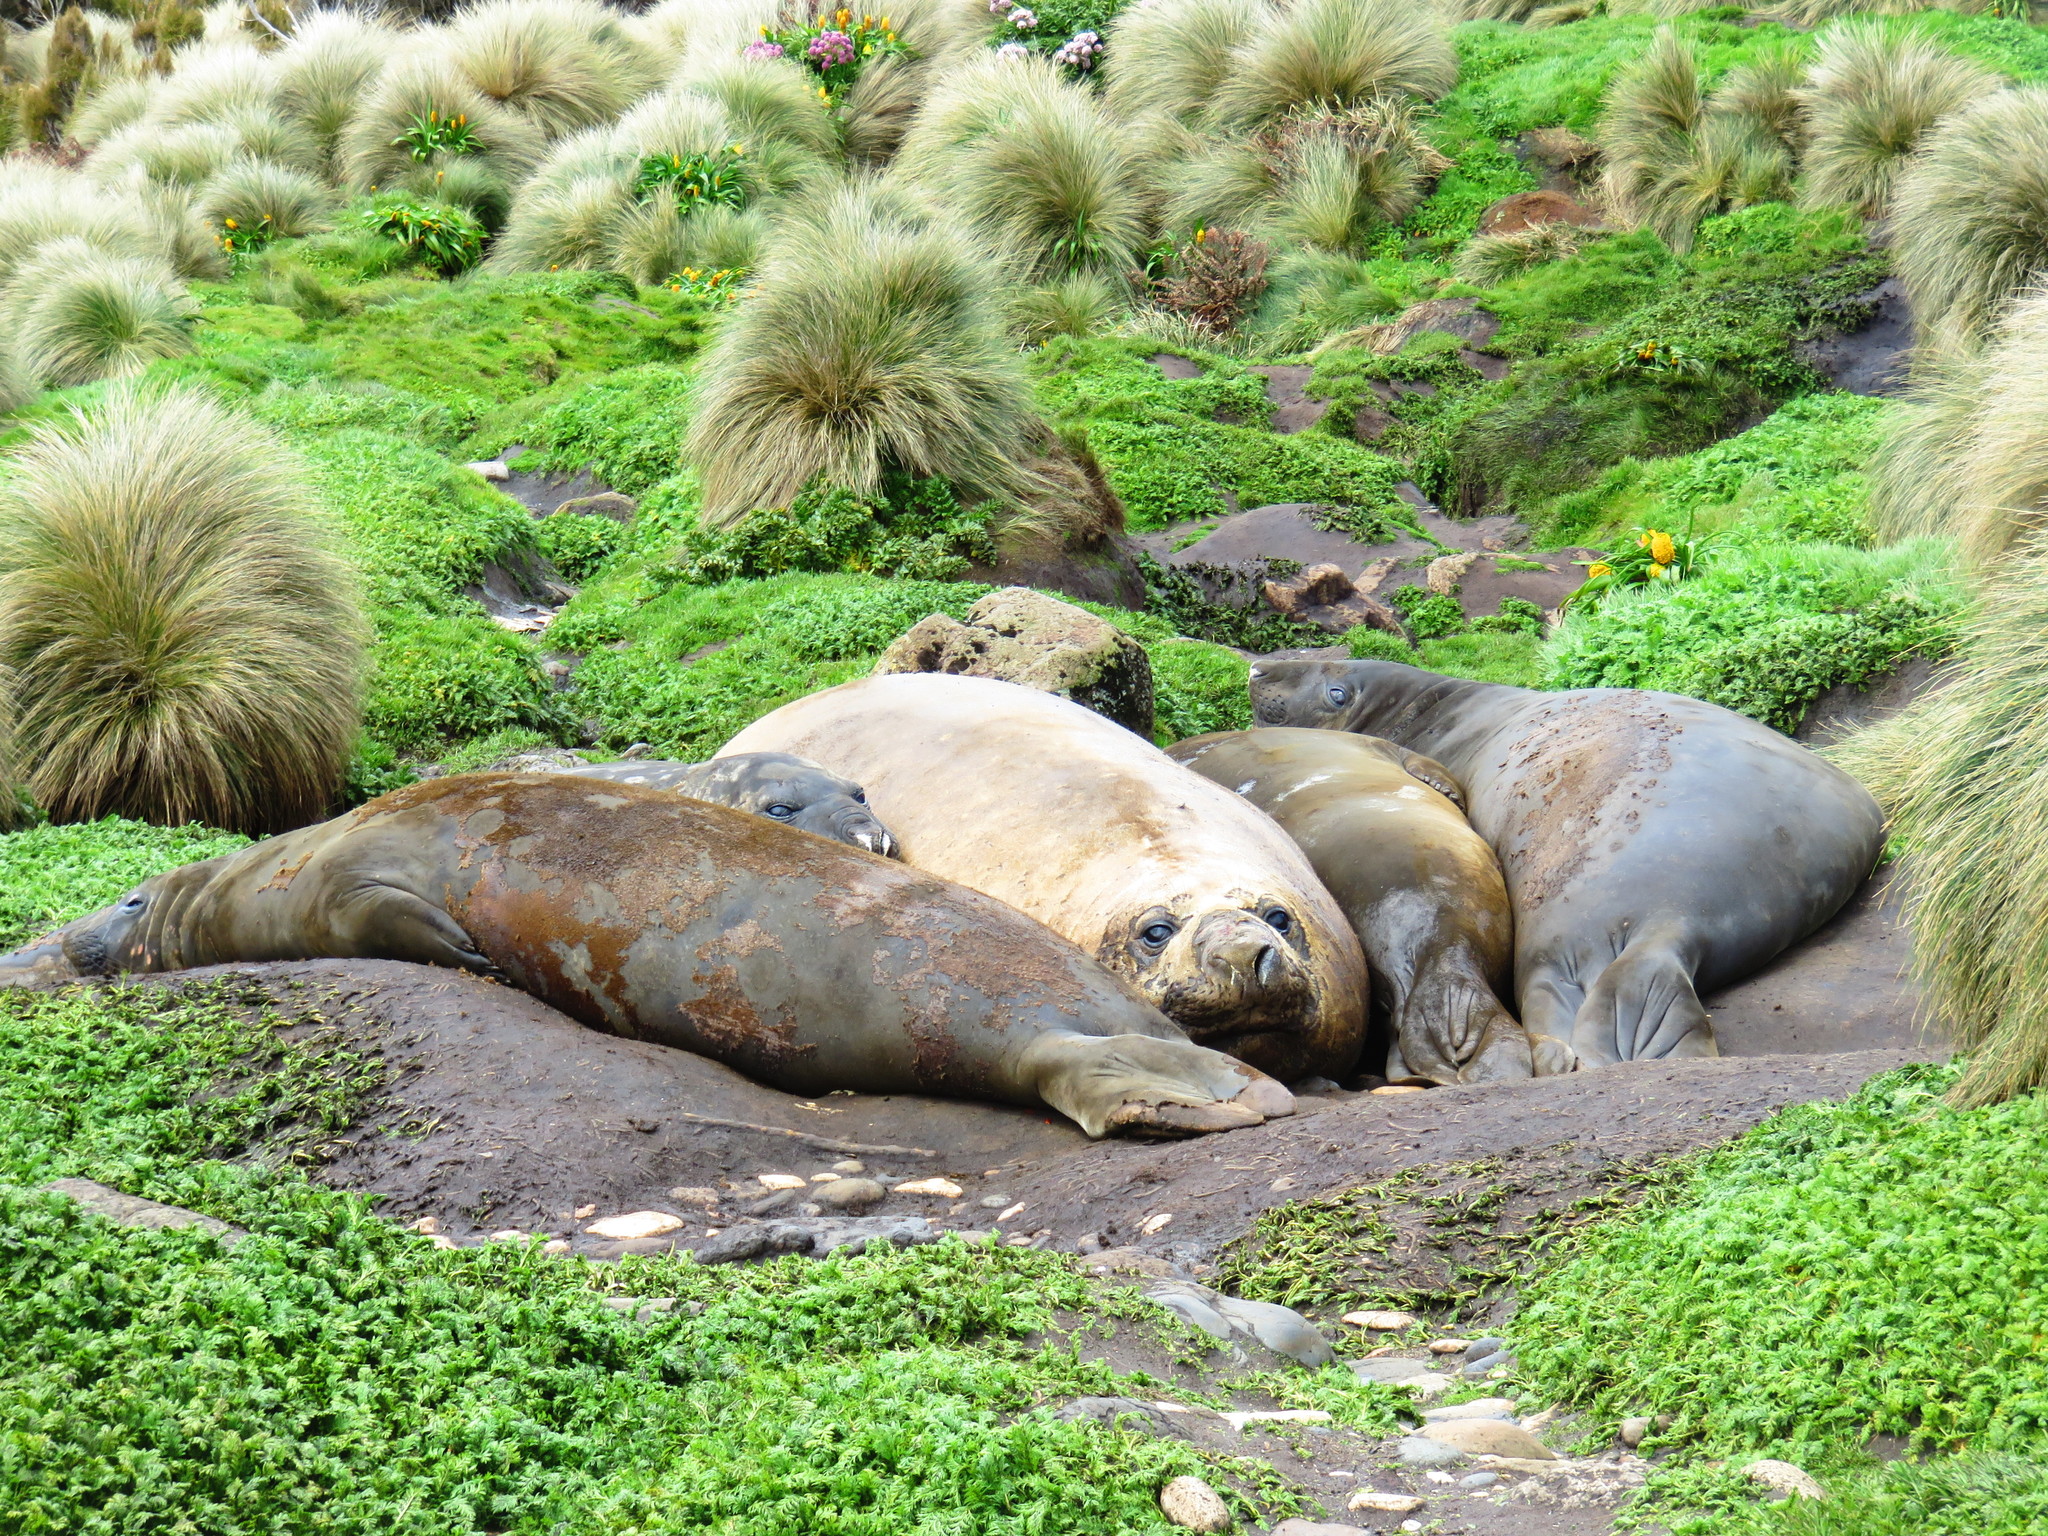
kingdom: Animalia
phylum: Chordata
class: Mammalia
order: Carnivora
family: Phocidae
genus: Mirounga
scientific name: Mirounga leonina
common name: Southern elephant seal
